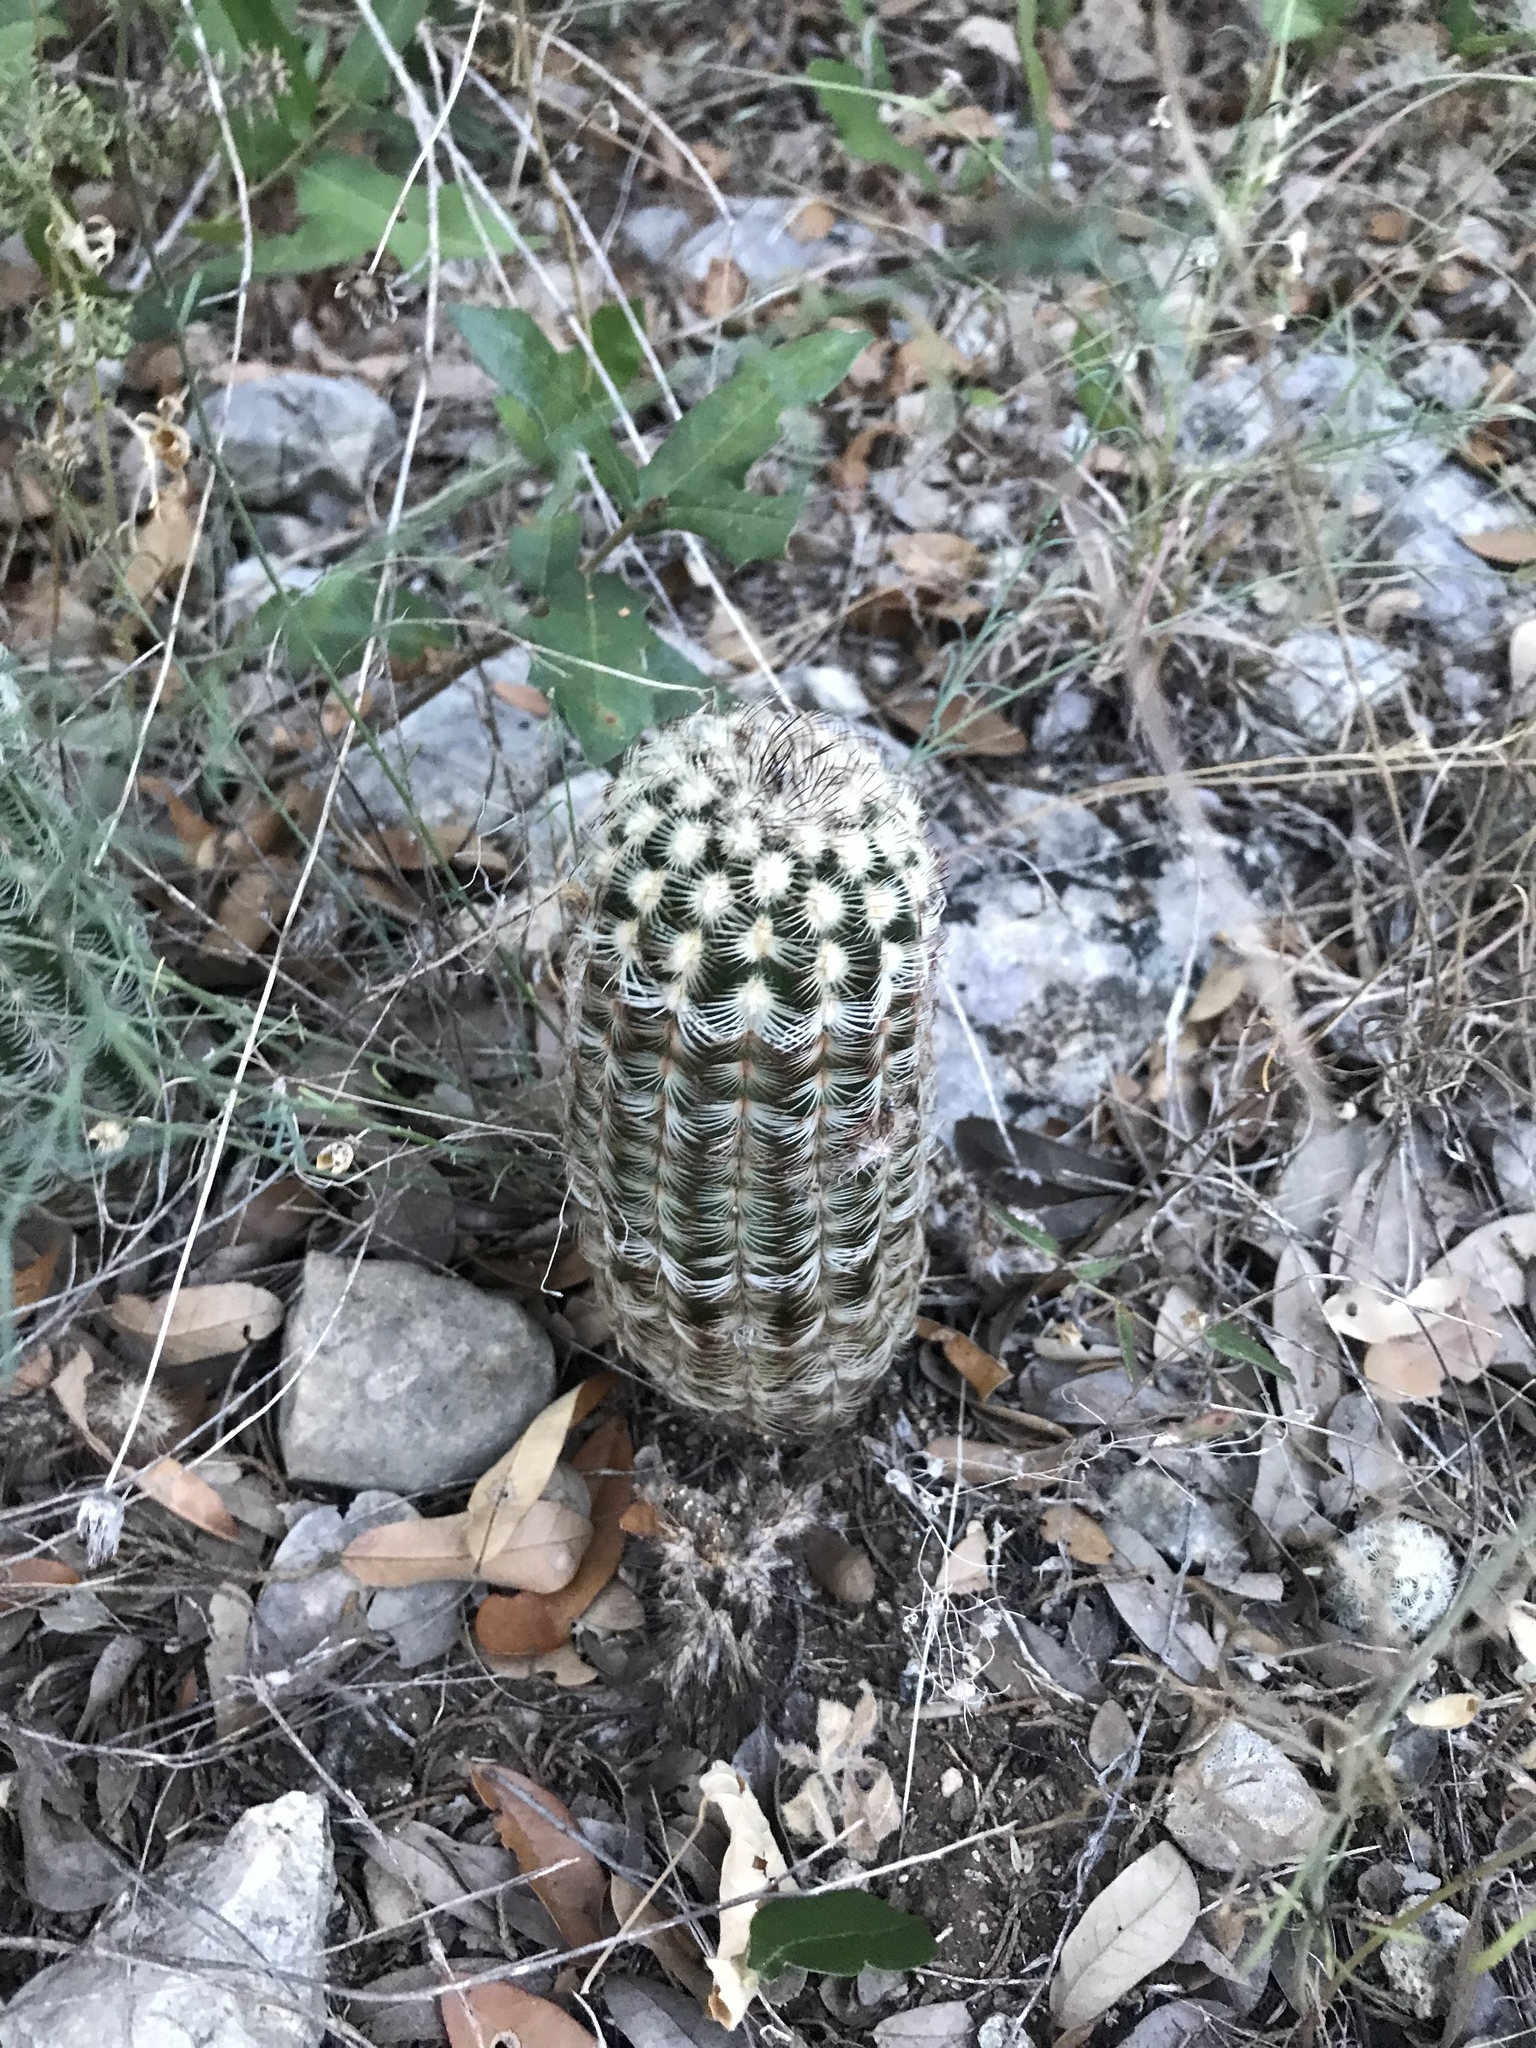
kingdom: Plantae
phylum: Tracheophyta
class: Magnoliopsida
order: Caryophyllales
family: Cactaceae
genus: Echinocereus
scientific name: Echinocereus reichenbachii
